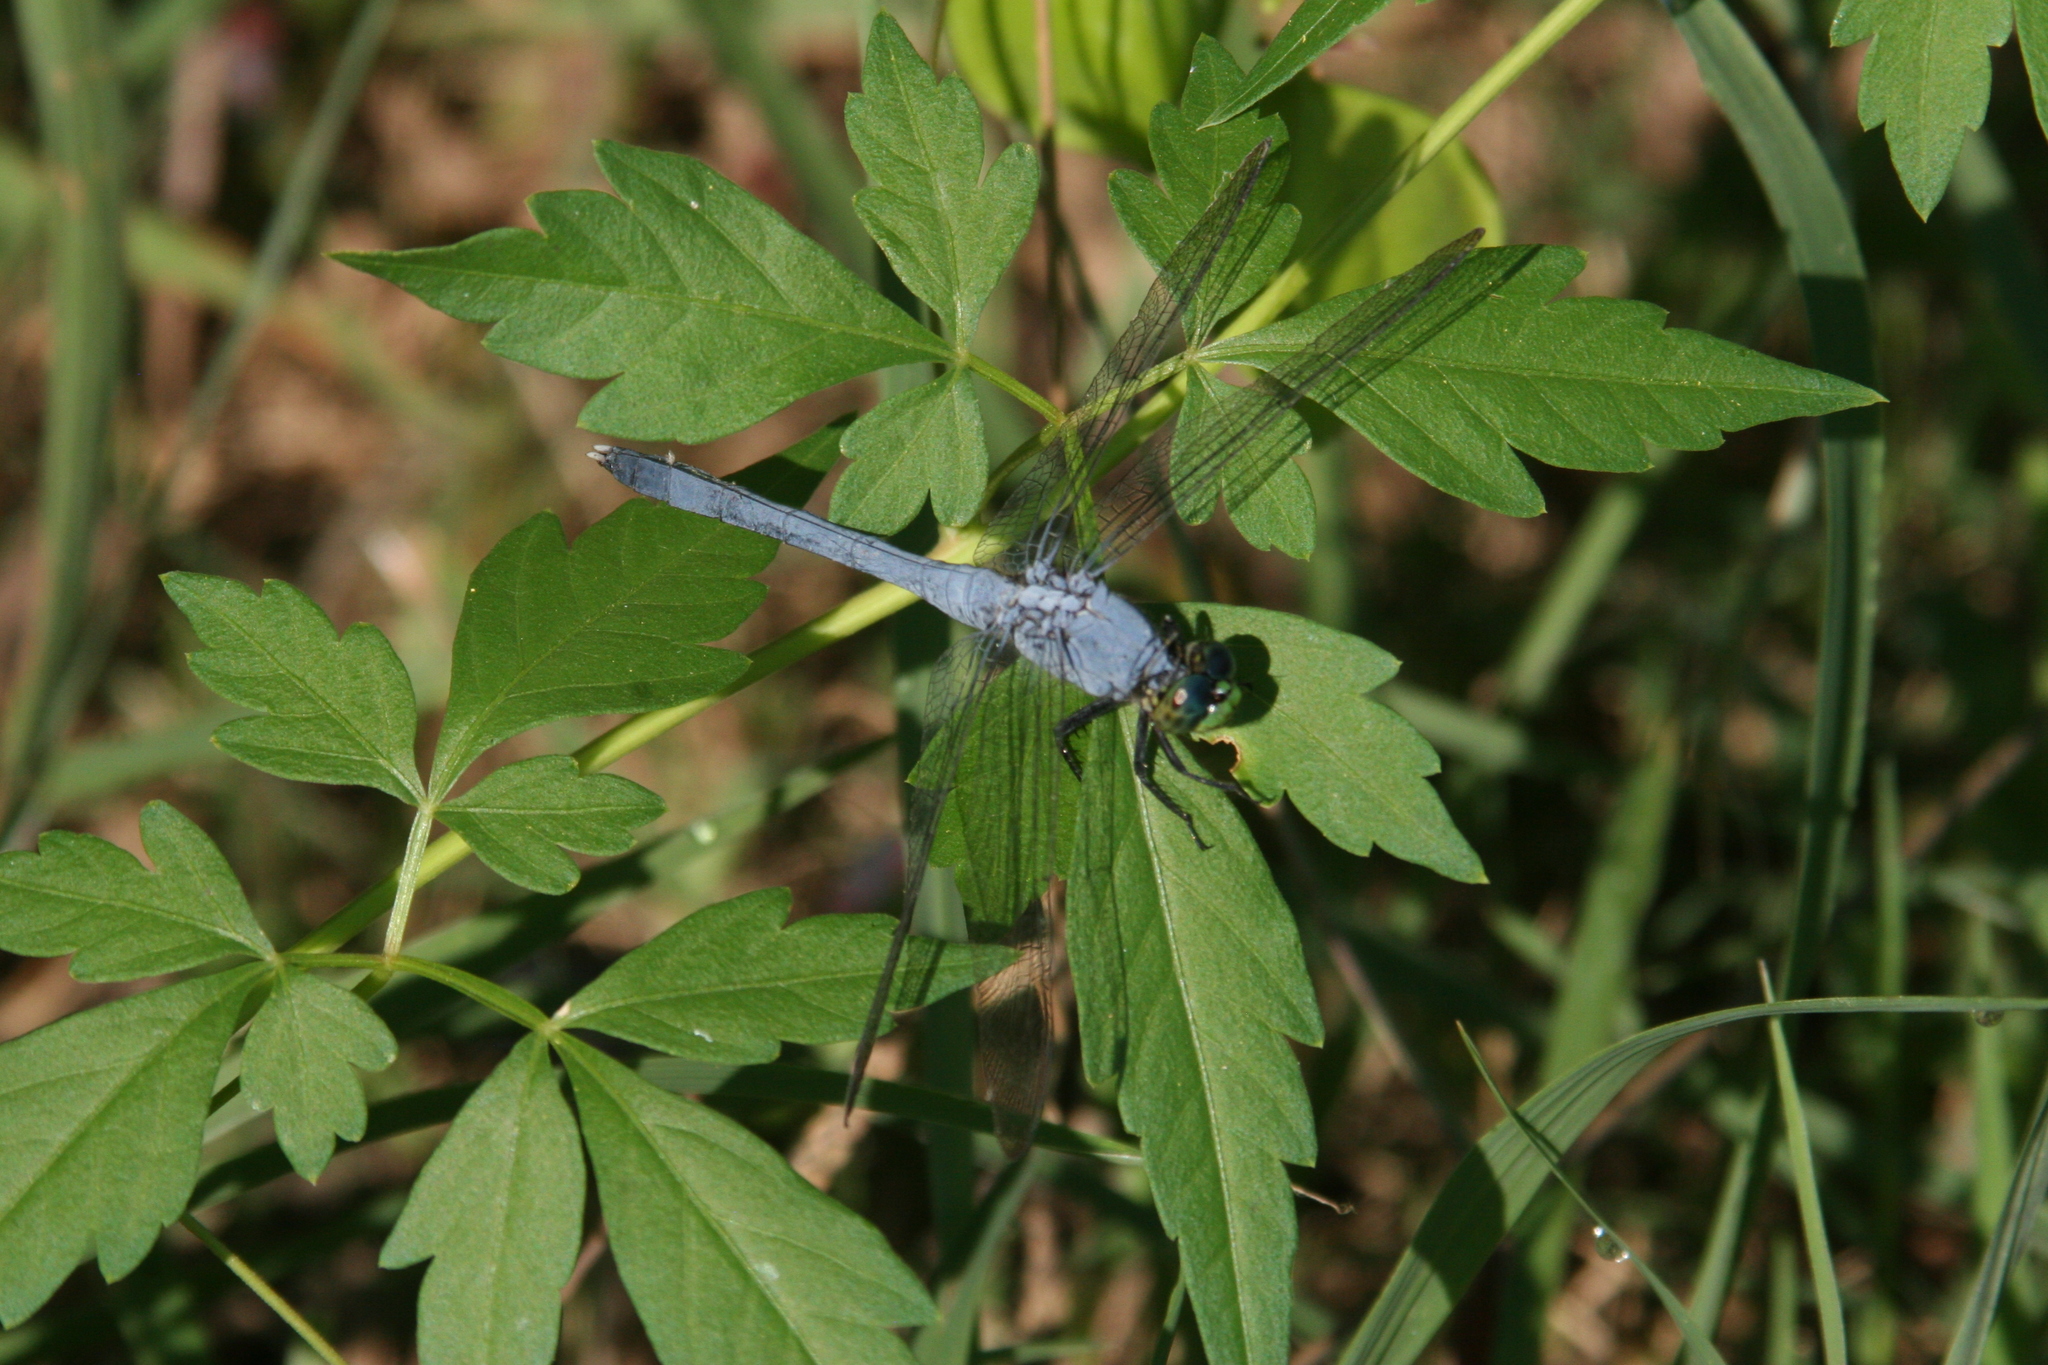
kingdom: Animalia
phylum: Arthropoda
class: Insecta
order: Odonata
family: Libellulidae
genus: Erythemis
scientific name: Erythemis simplicicollis
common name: Eastern pondhawk
